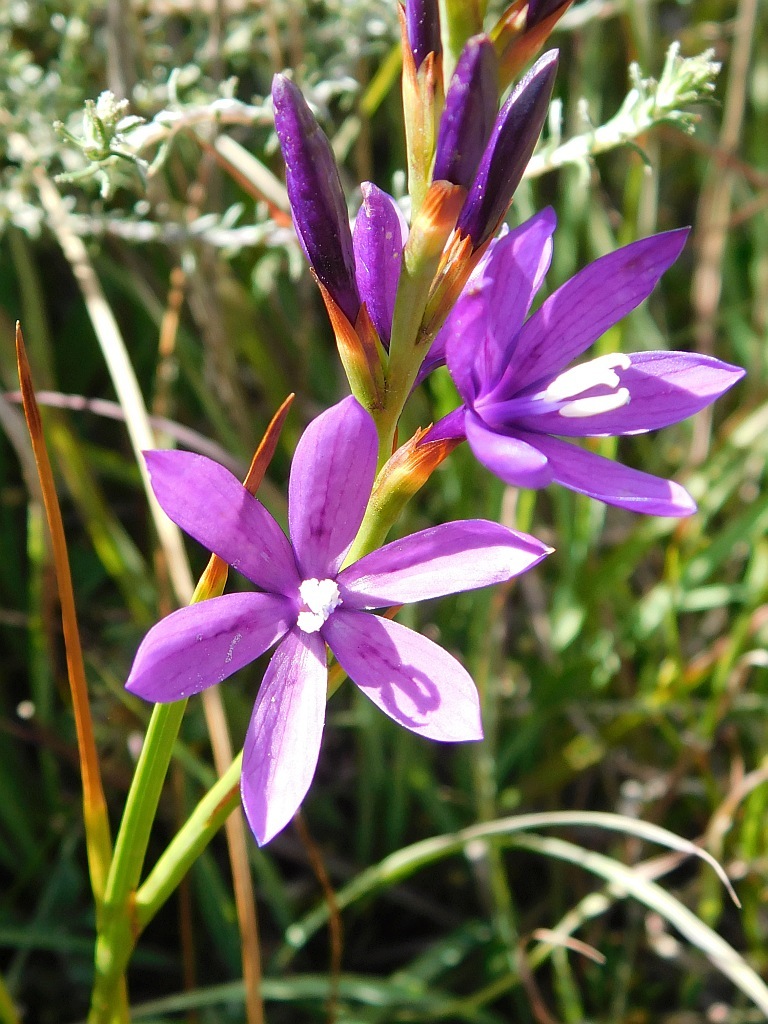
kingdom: Plantae
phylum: Tracheophyta
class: Liliopsida
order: Asparagales
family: Iridaceae
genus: Thereianthus
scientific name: Thereianthus bracteolatus
